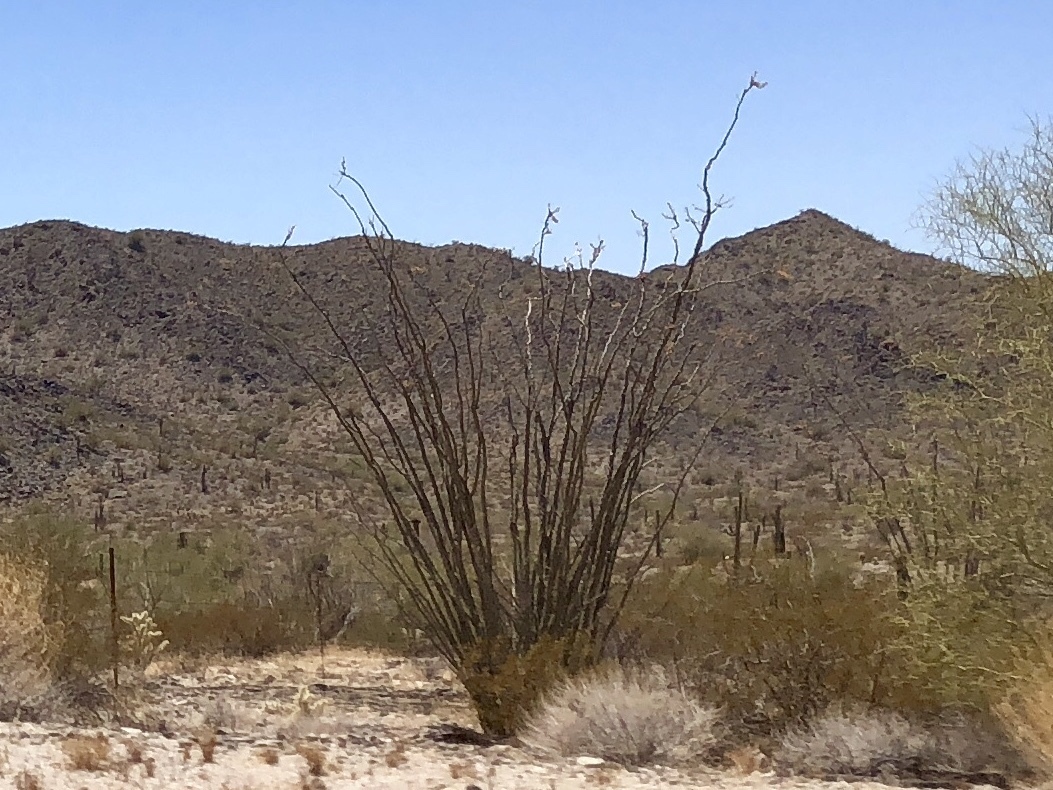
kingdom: Plantae
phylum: Tracheophyta
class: Magnoliopsida
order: Ericales
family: Fouquieriaceae
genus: Fouquieria
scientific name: Fouquieria splendens
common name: Vine-cactus
